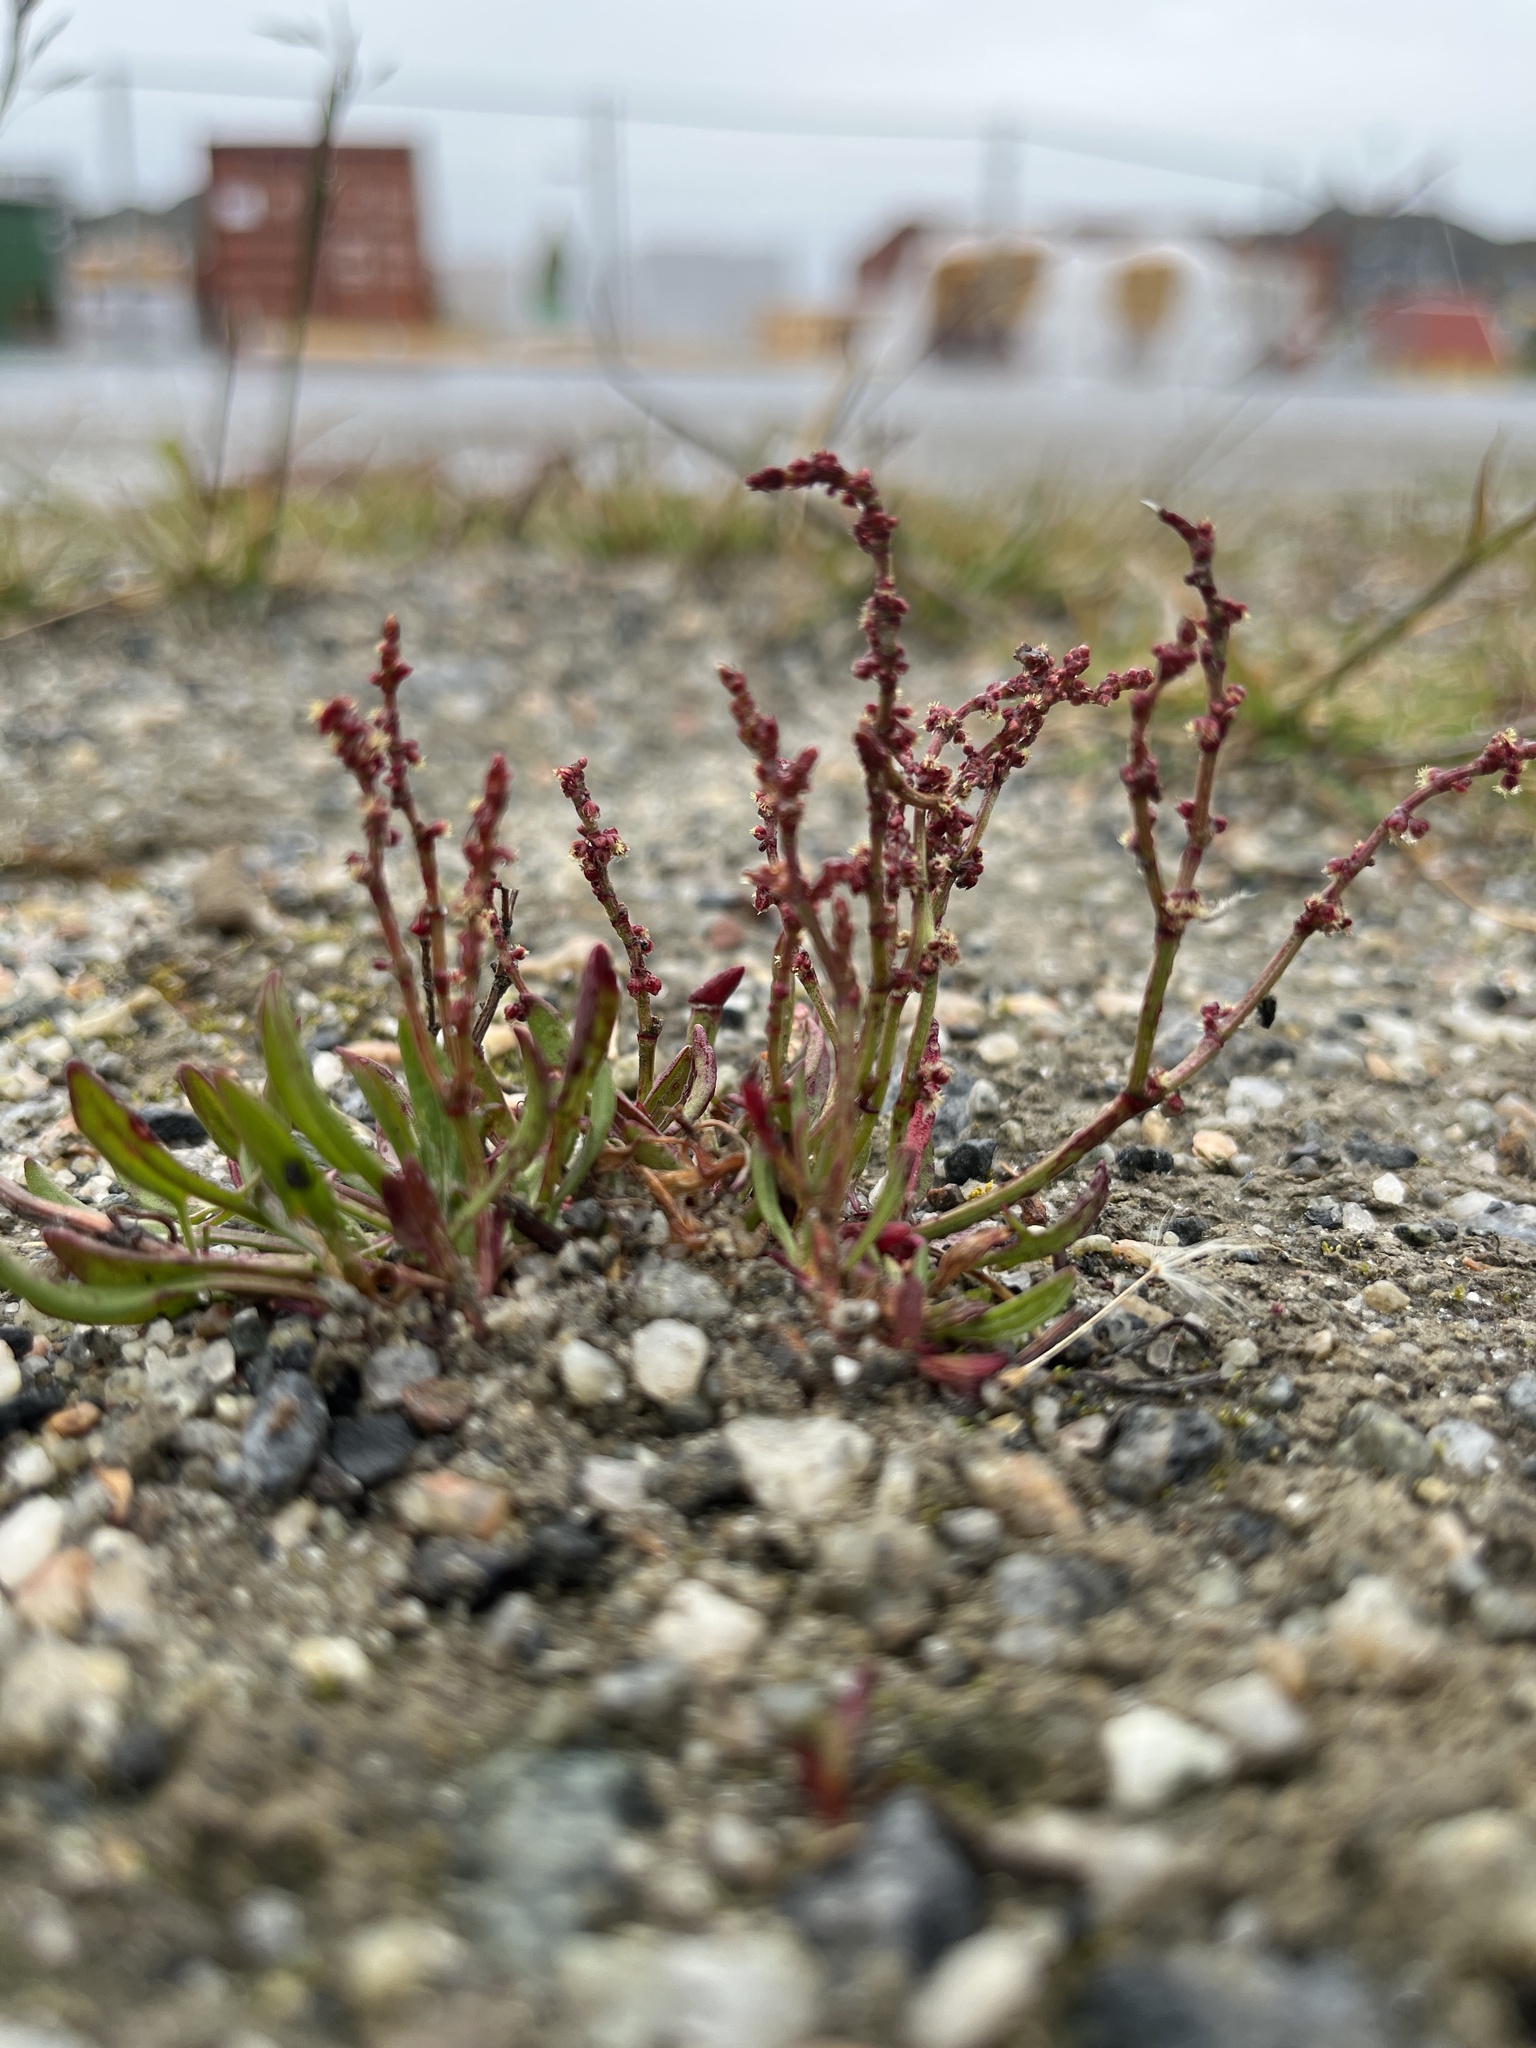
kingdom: Plantae
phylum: Tracheophyta
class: Magnoliopsida
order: Caryophyllales
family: Polygonaceae
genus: Rumex
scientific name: Rumex acetosella
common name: Common sheep sorrel
